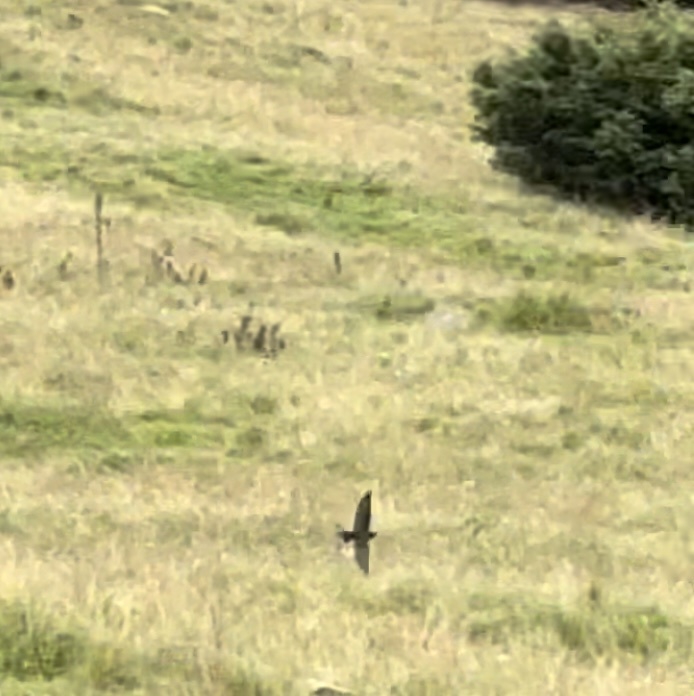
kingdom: Animalia
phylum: Chordata
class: Aves
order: Passeriformes
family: Hirundinidae
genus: Hirundo
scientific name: Hirundo rustica
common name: Barn swallow
